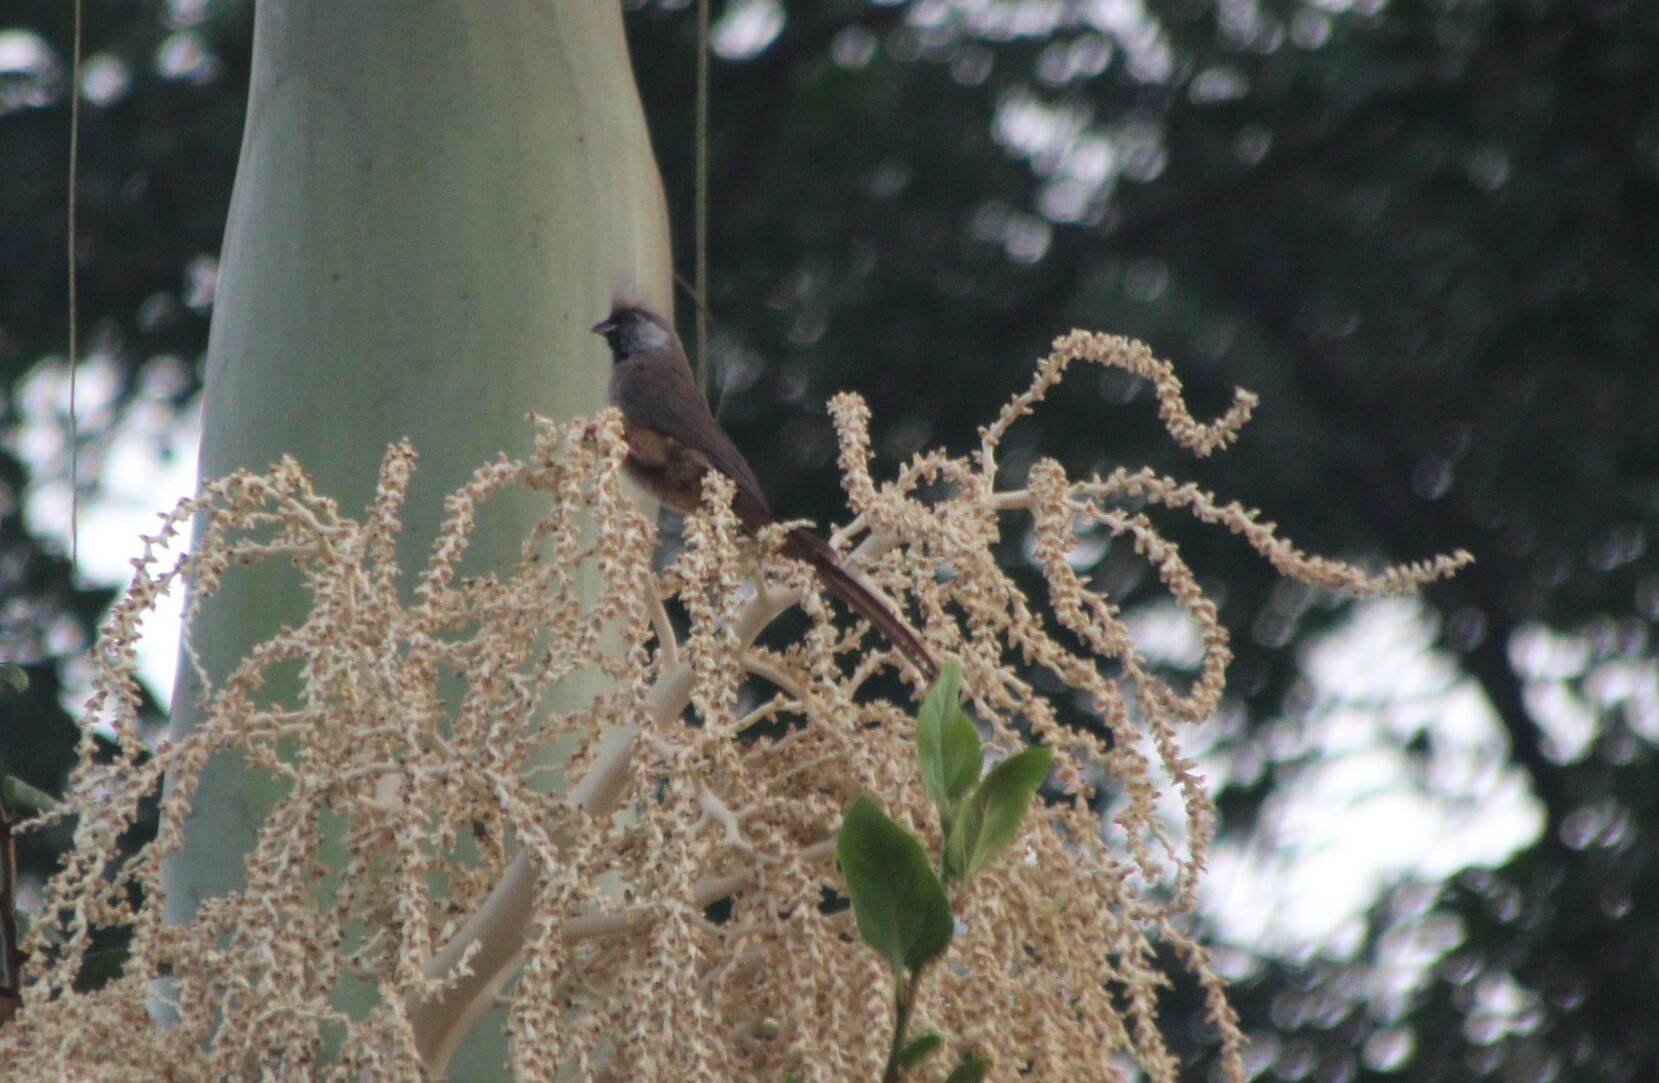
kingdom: Animalia
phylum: Chordata
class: Aves
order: Coliiformes
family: Coliidae
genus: Colius
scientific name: Colius striatus
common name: Speckled mousebird
